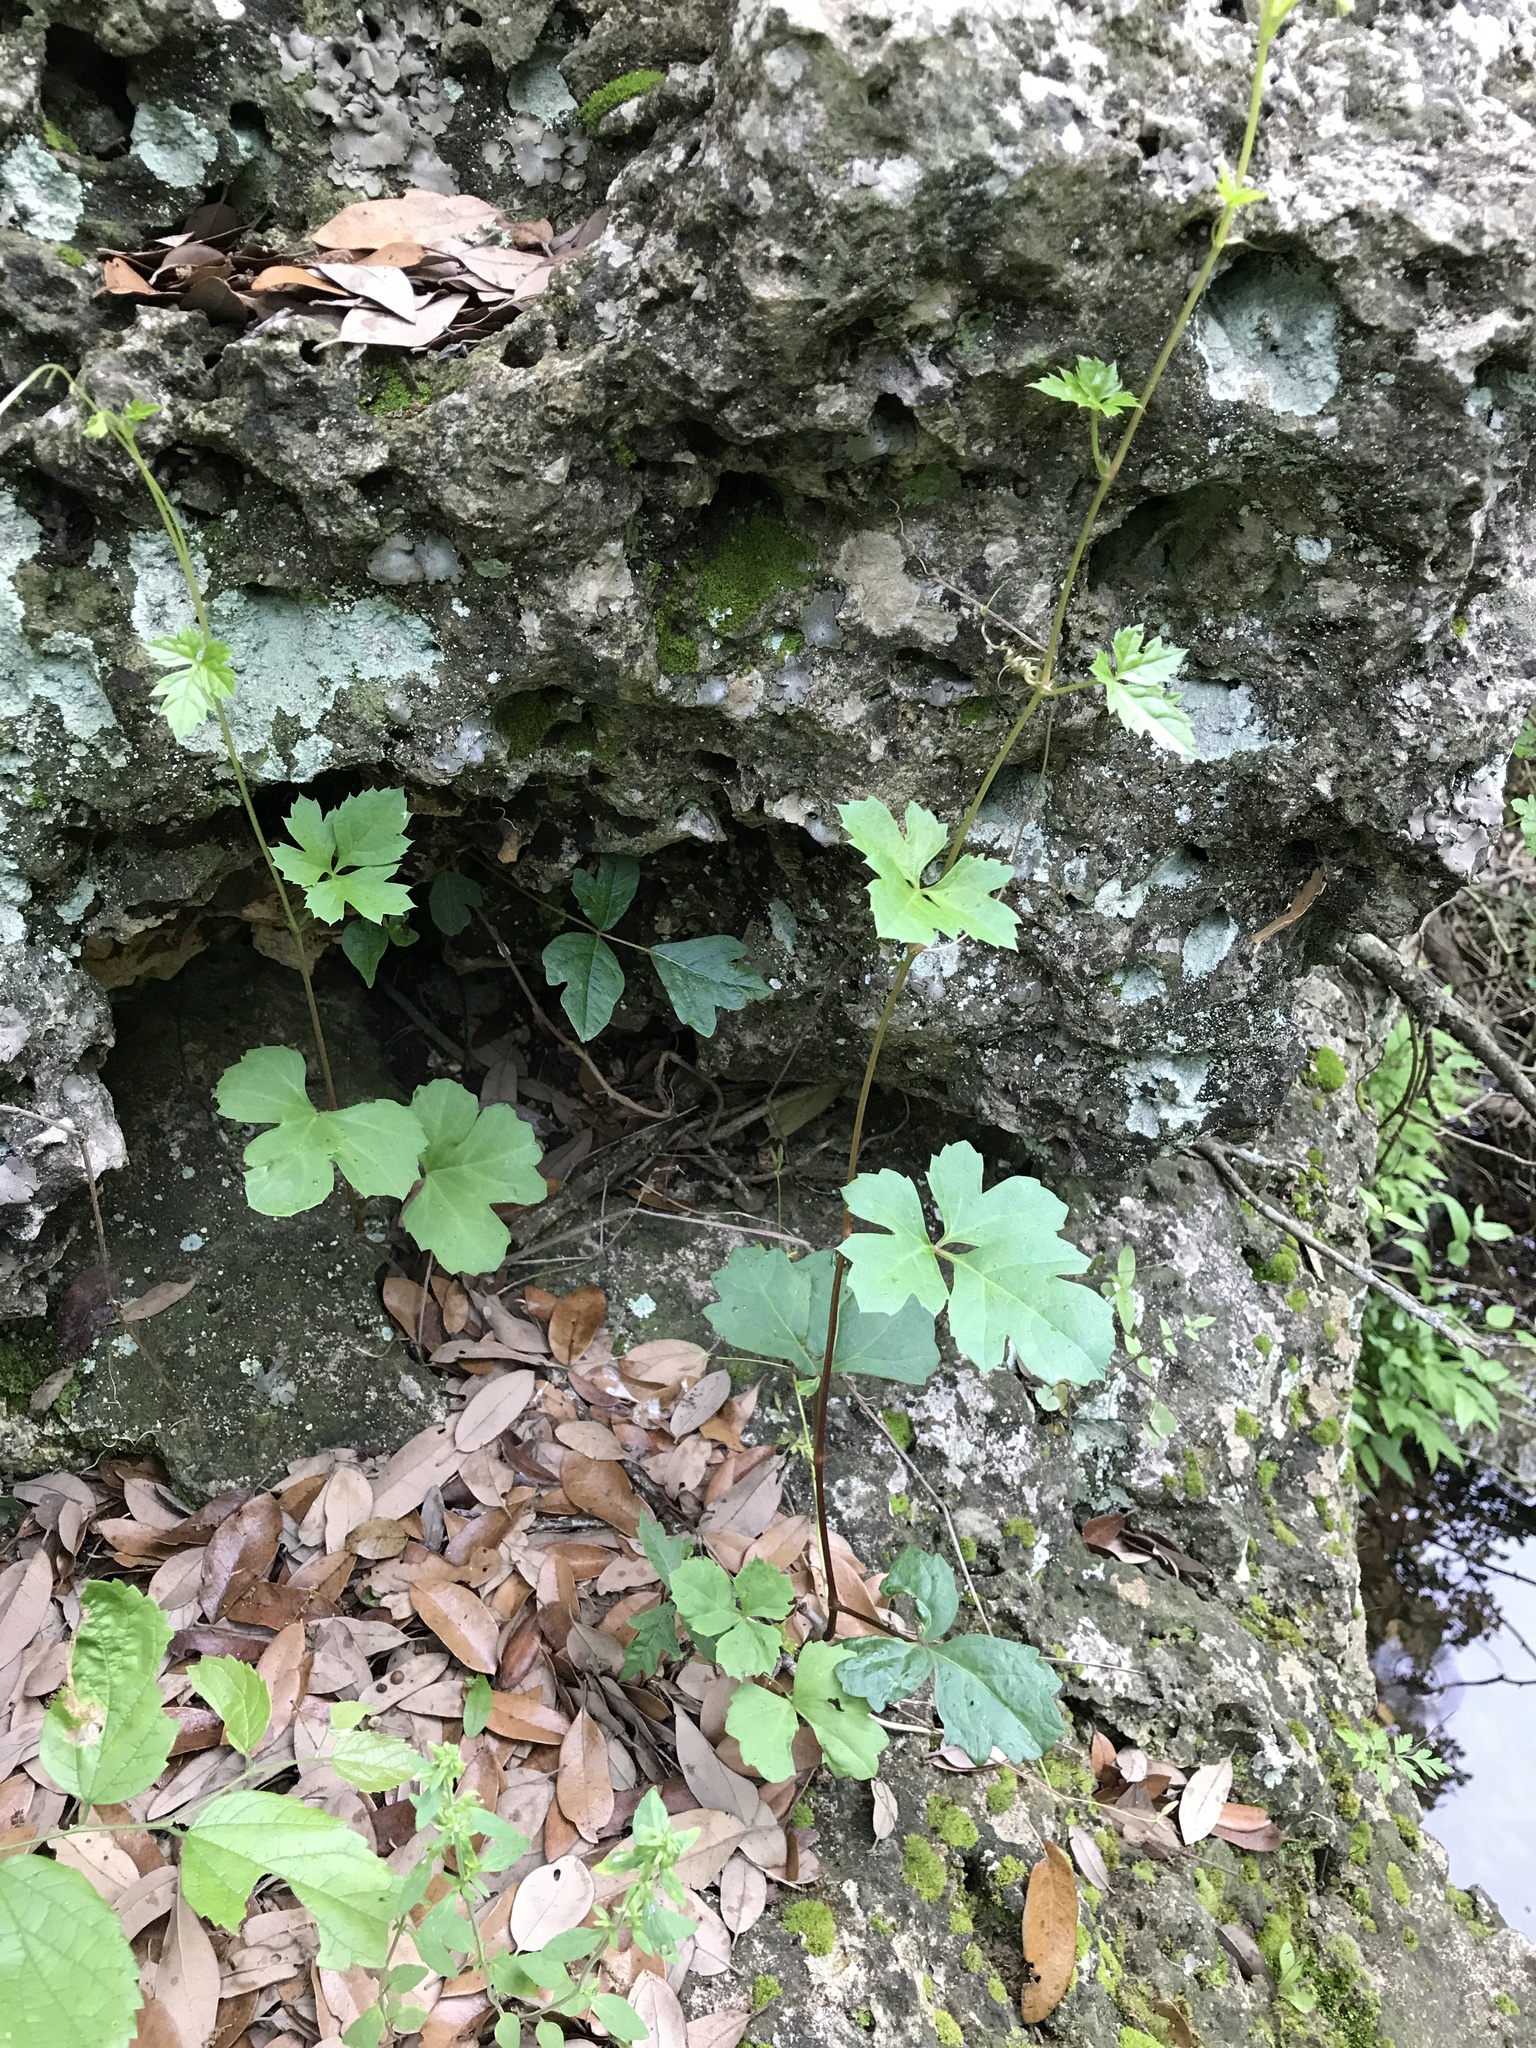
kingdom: Plantae
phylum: Tracheophyta
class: Magnoliopsida
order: Vitales
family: Vitaceae
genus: Cissus
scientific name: Cissus trifoliata
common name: Vine-sorrel
